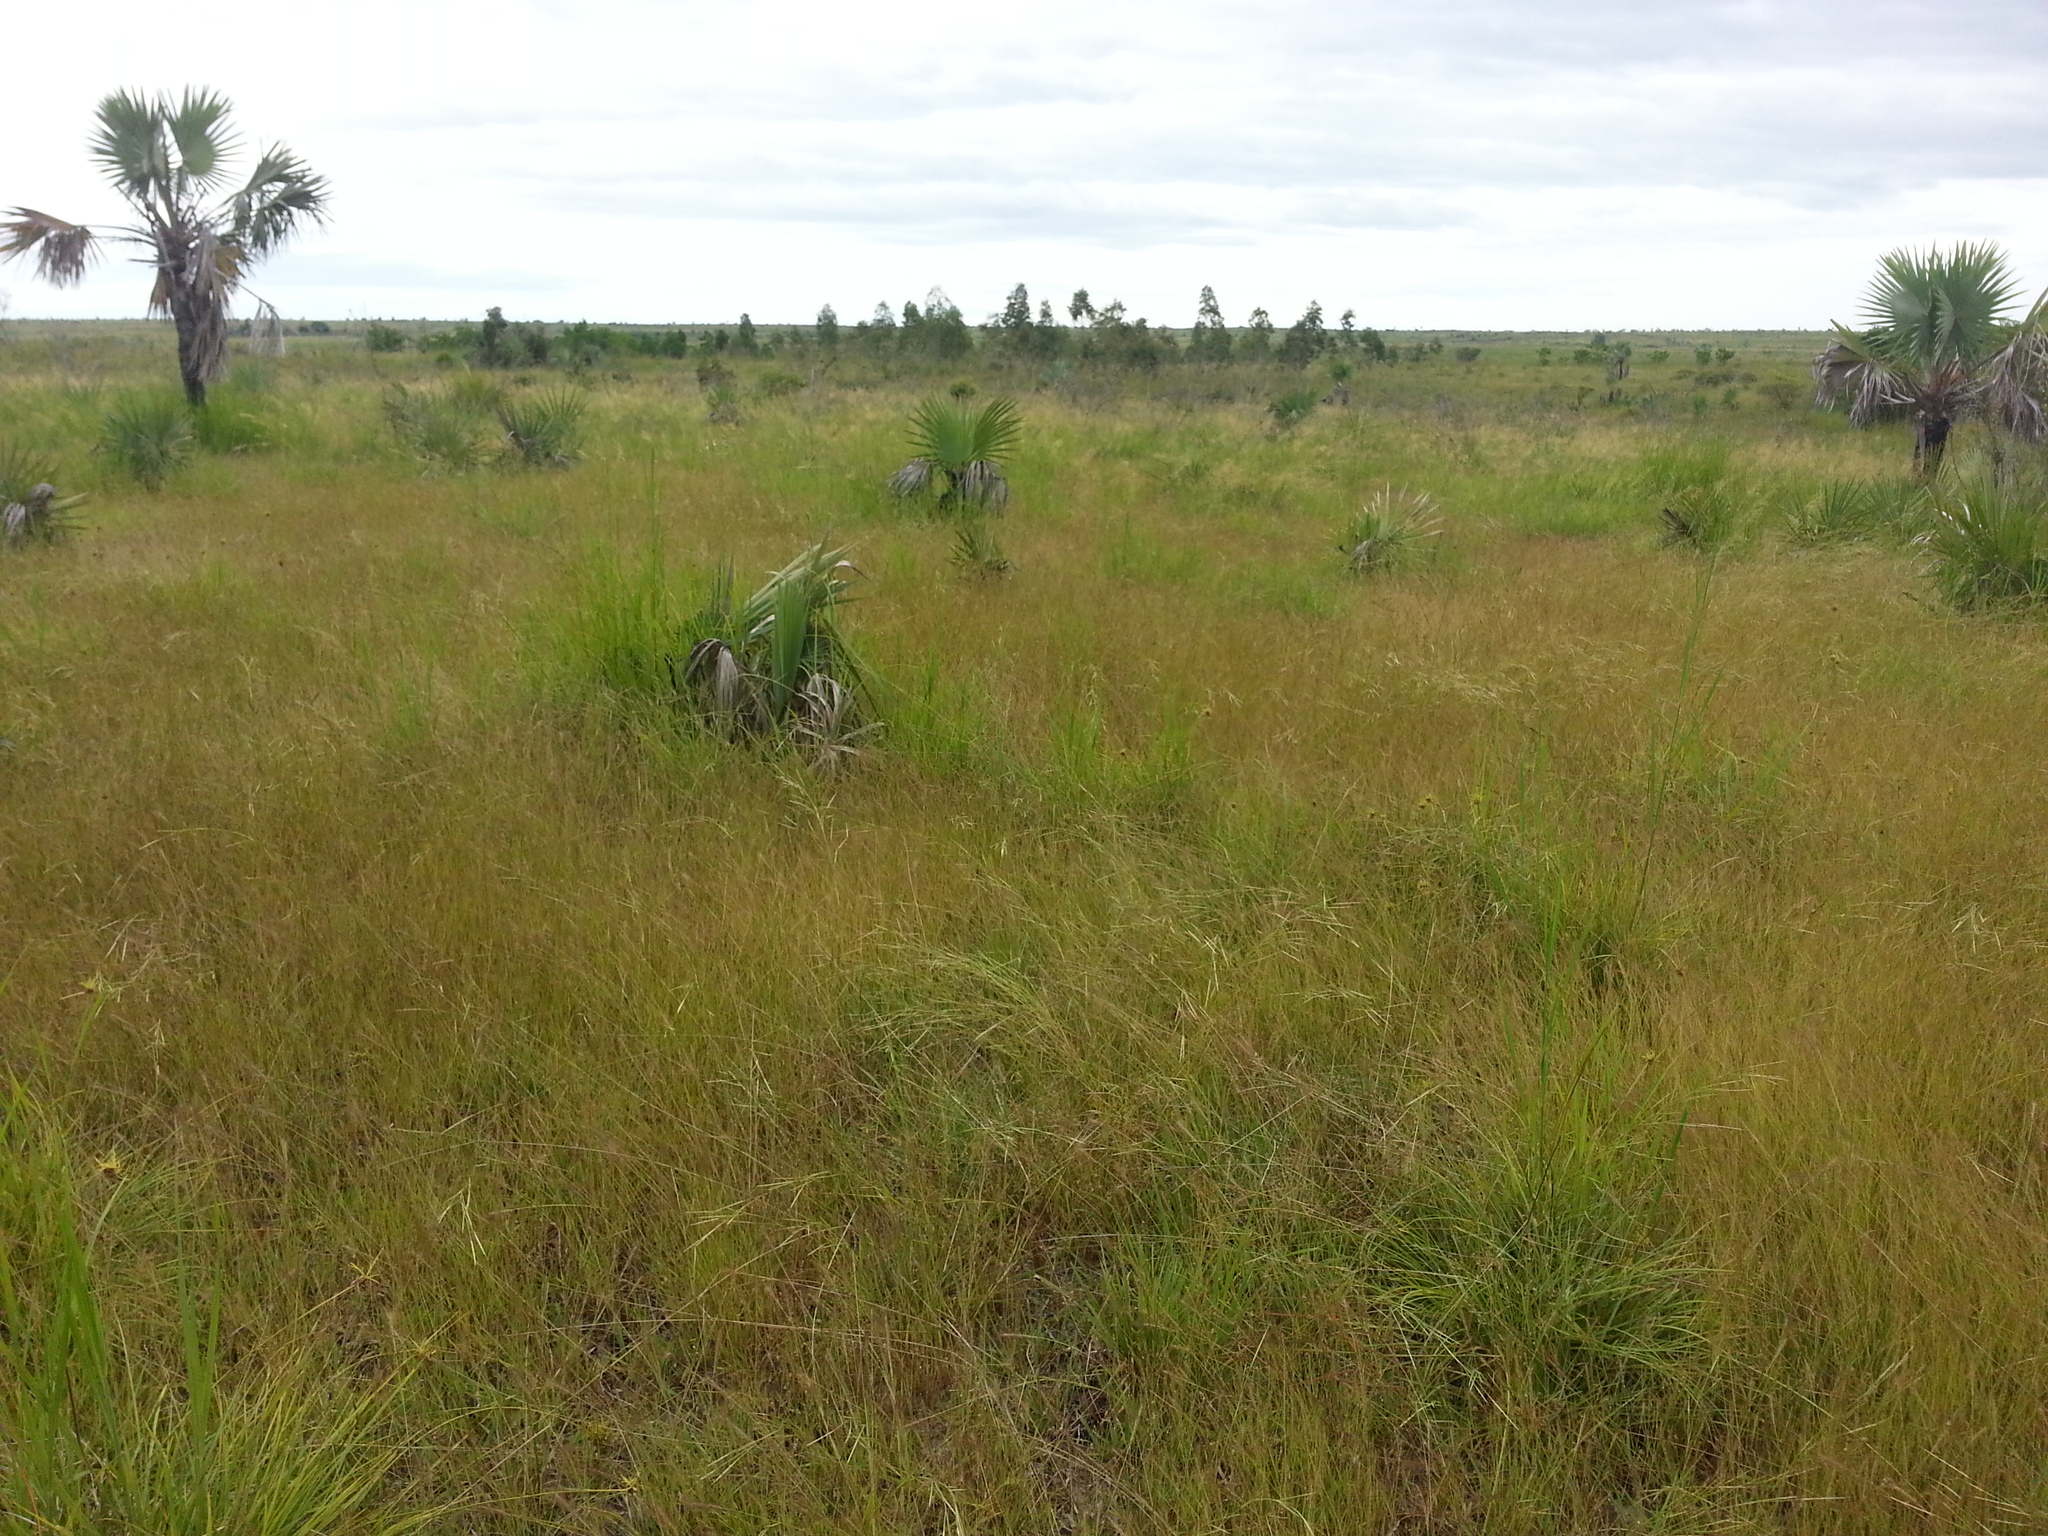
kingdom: Plantae
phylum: Tracheophyta
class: Liliopsida
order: Poales
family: Poaceae
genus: Diectomis
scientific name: Diectomis fastigiata
